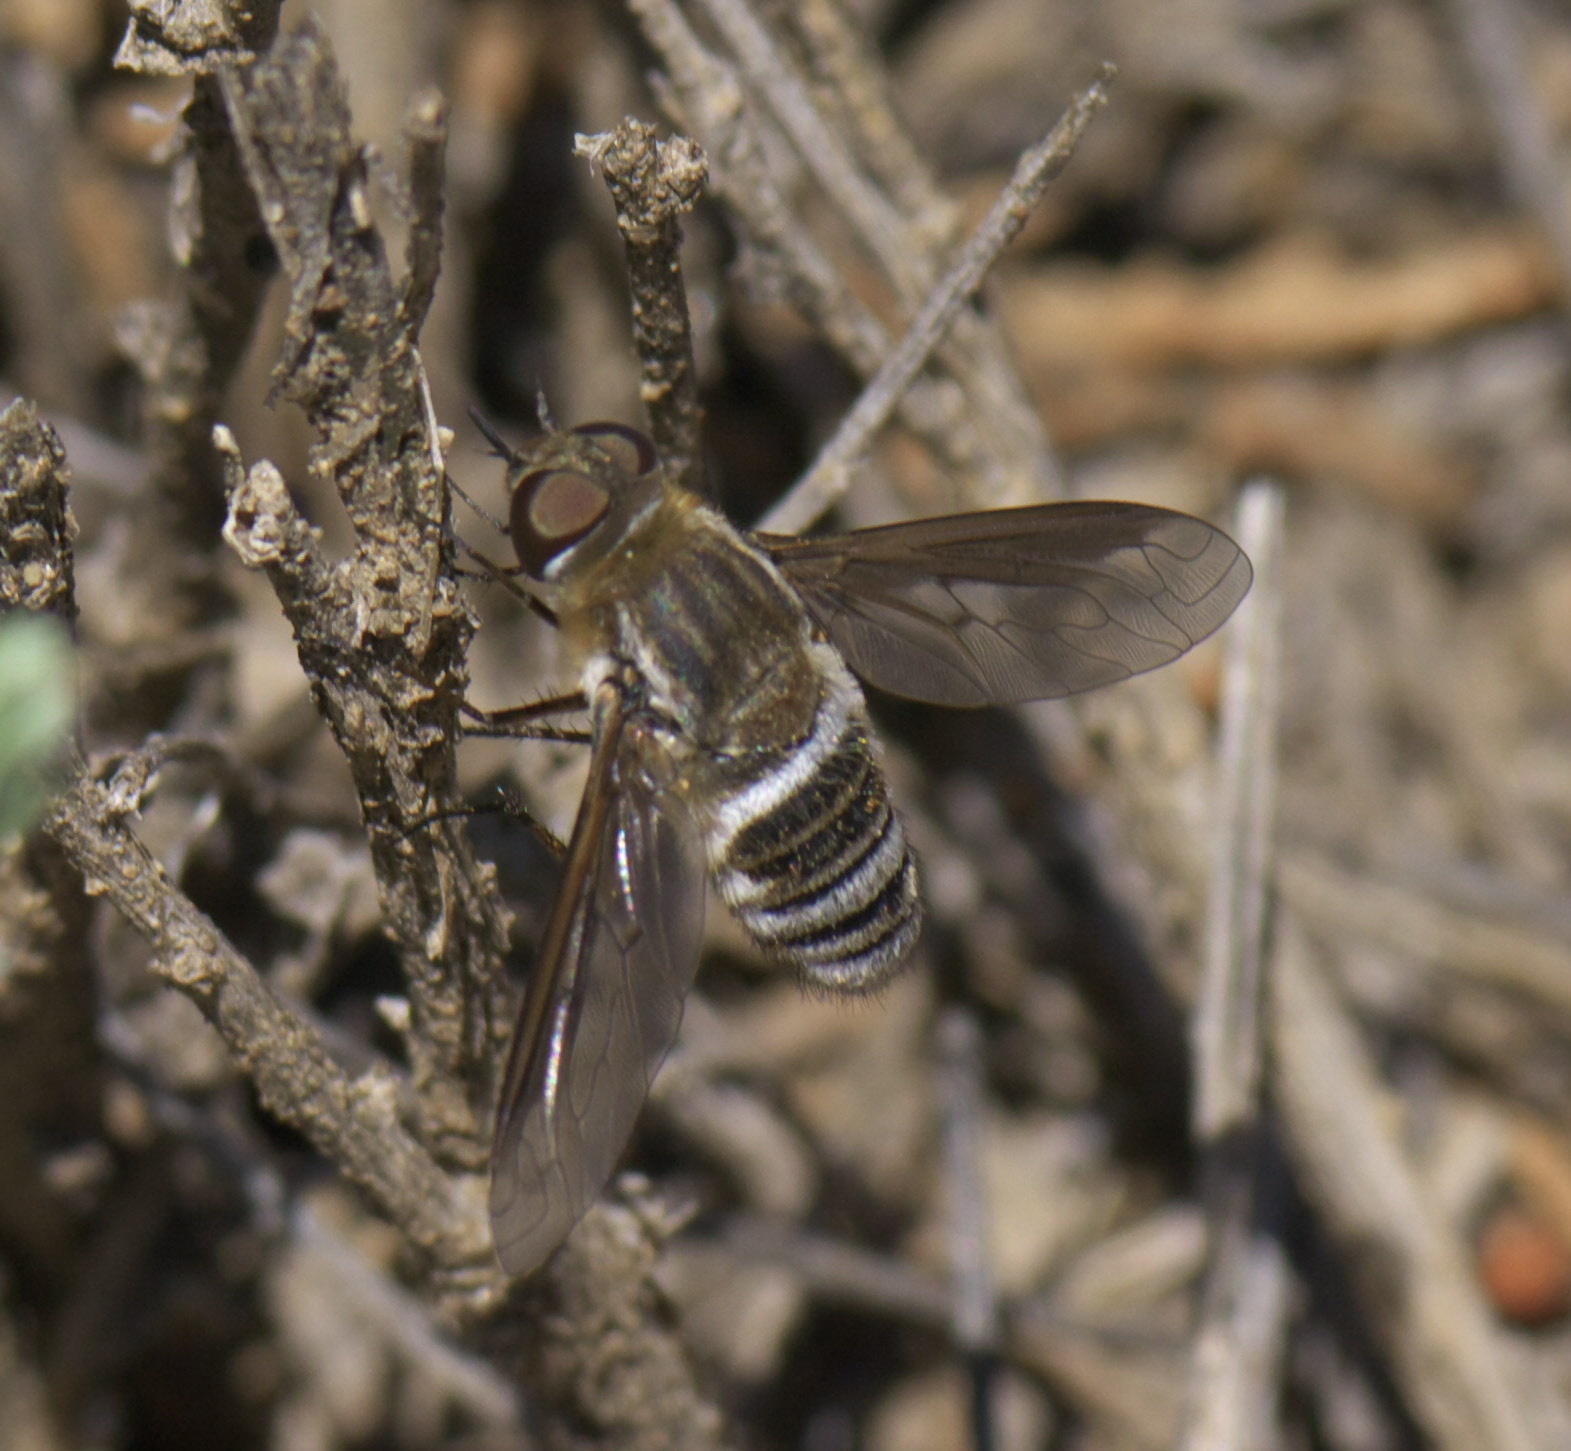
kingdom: Animalia
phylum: Arthropoda
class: Insecta
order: Diptera
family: Bombyliidae
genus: Exoprosopa
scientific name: Exoprosopa dodrans
